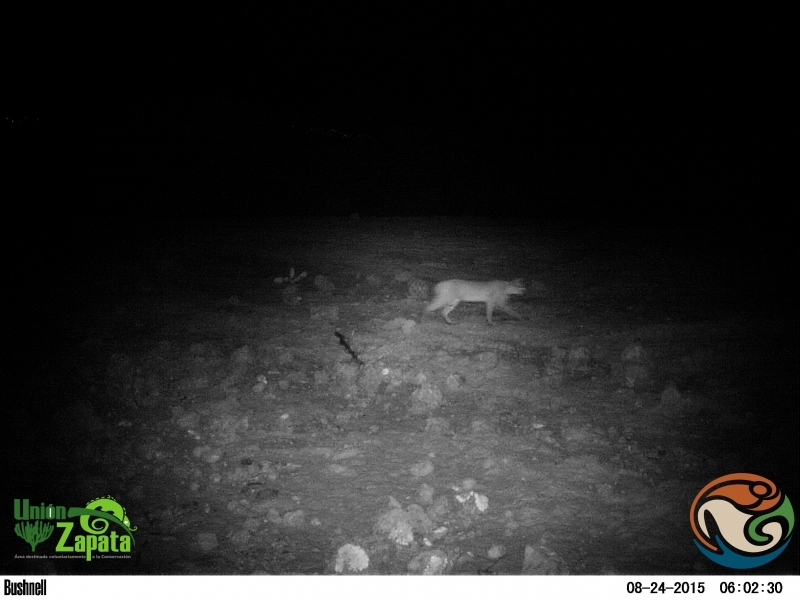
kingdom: Animalia
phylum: Chordata
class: Mammalia
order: Carnivora
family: Felidae
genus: Lynx
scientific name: Lynx rufus
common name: Bobcat
